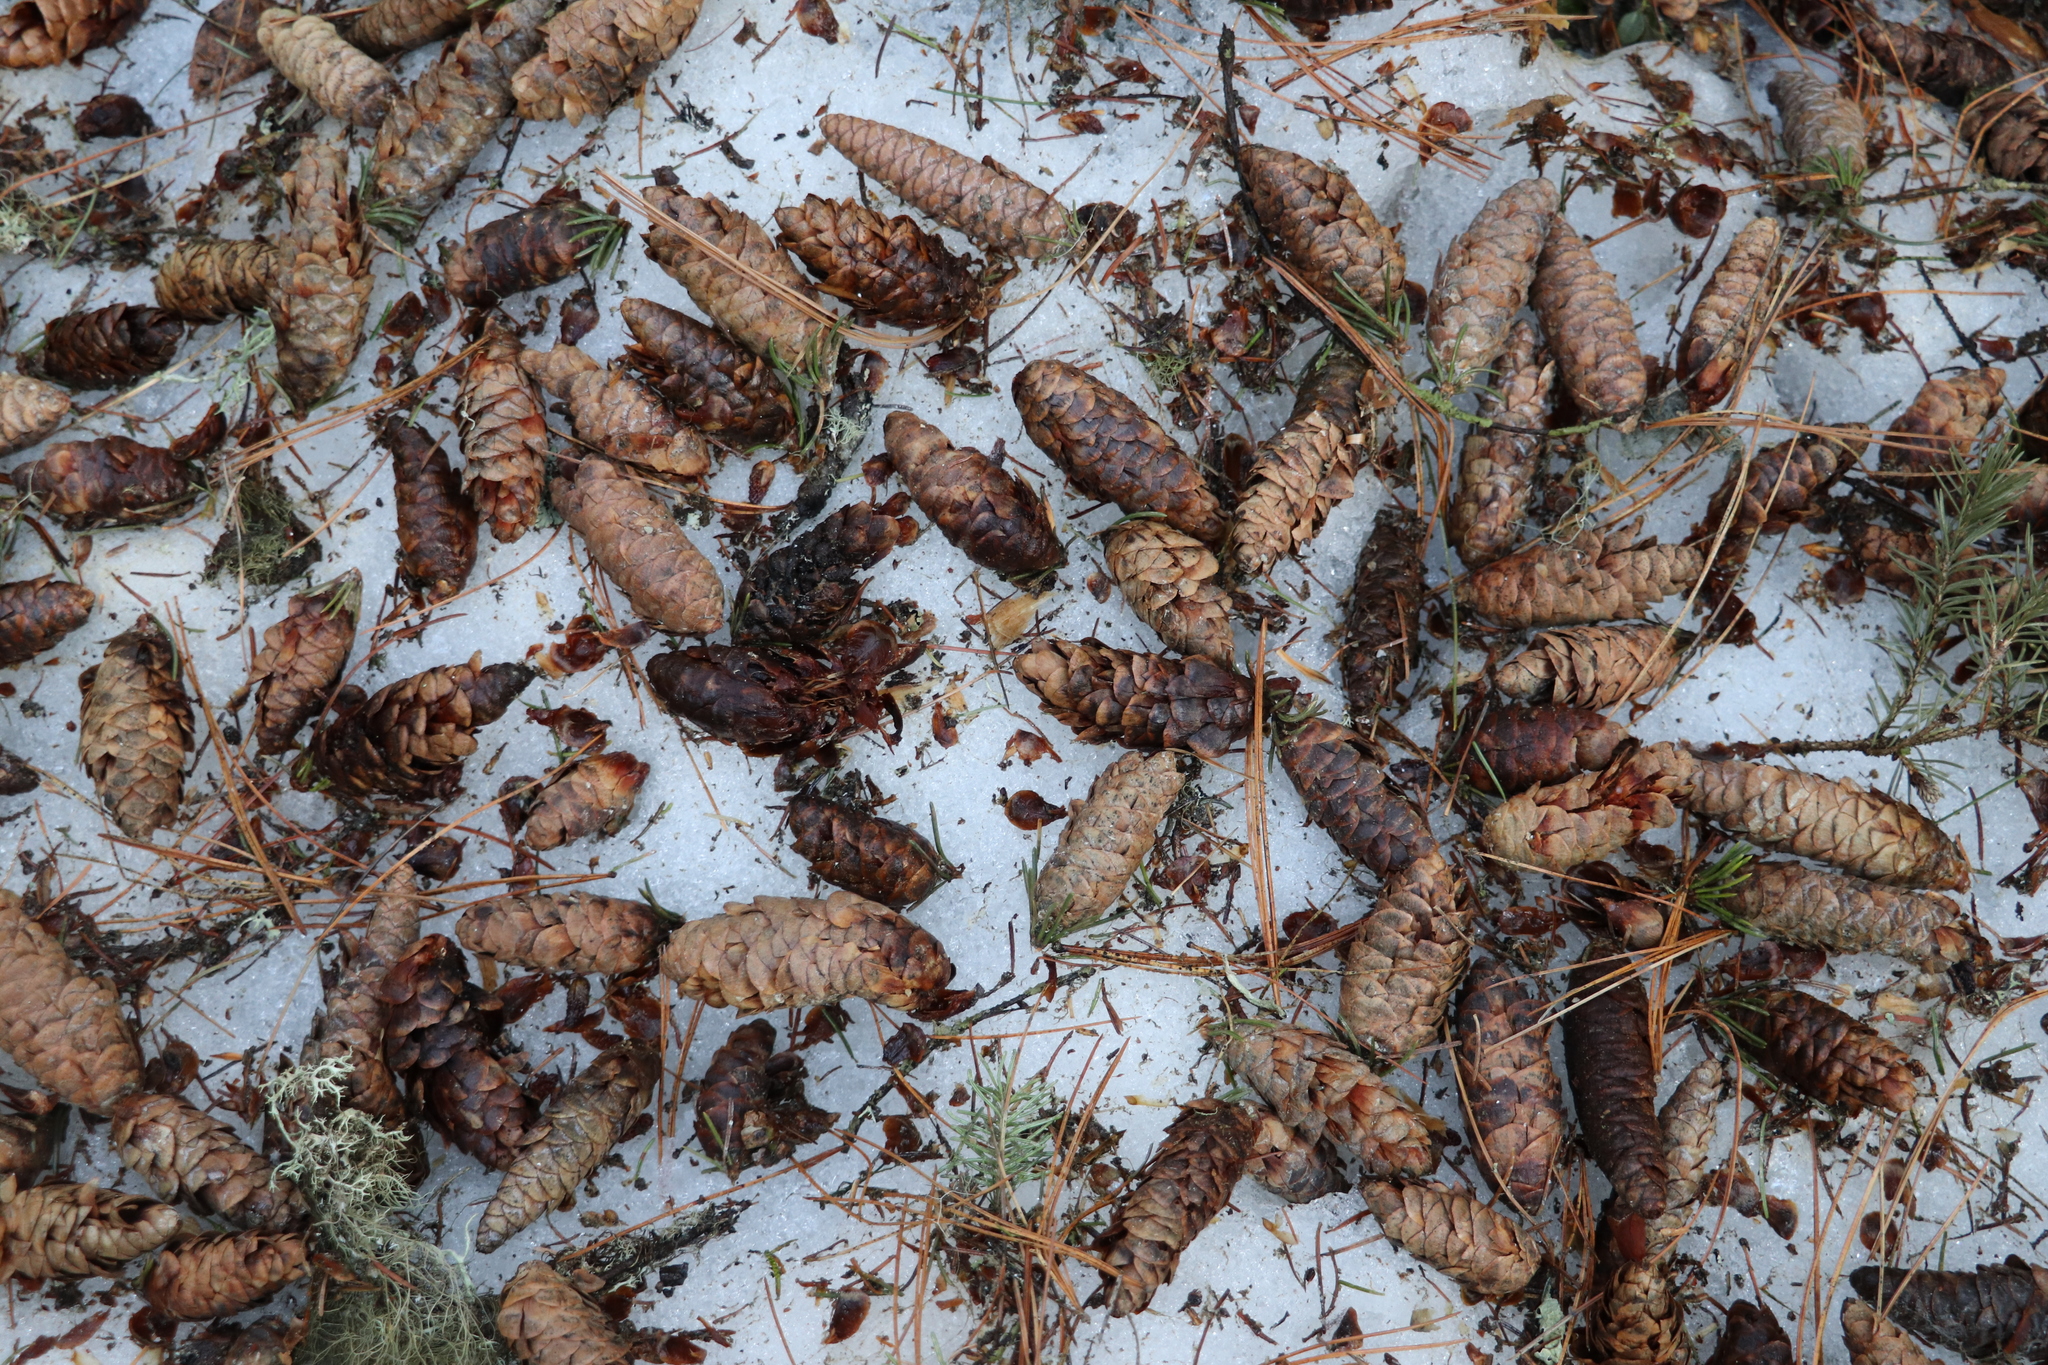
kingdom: Plantae
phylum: Tracheophyta
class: Pinopsida
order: Pinales
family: Pinaceae
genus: Picea
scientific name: Picea obovata
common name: Siberian spruce
